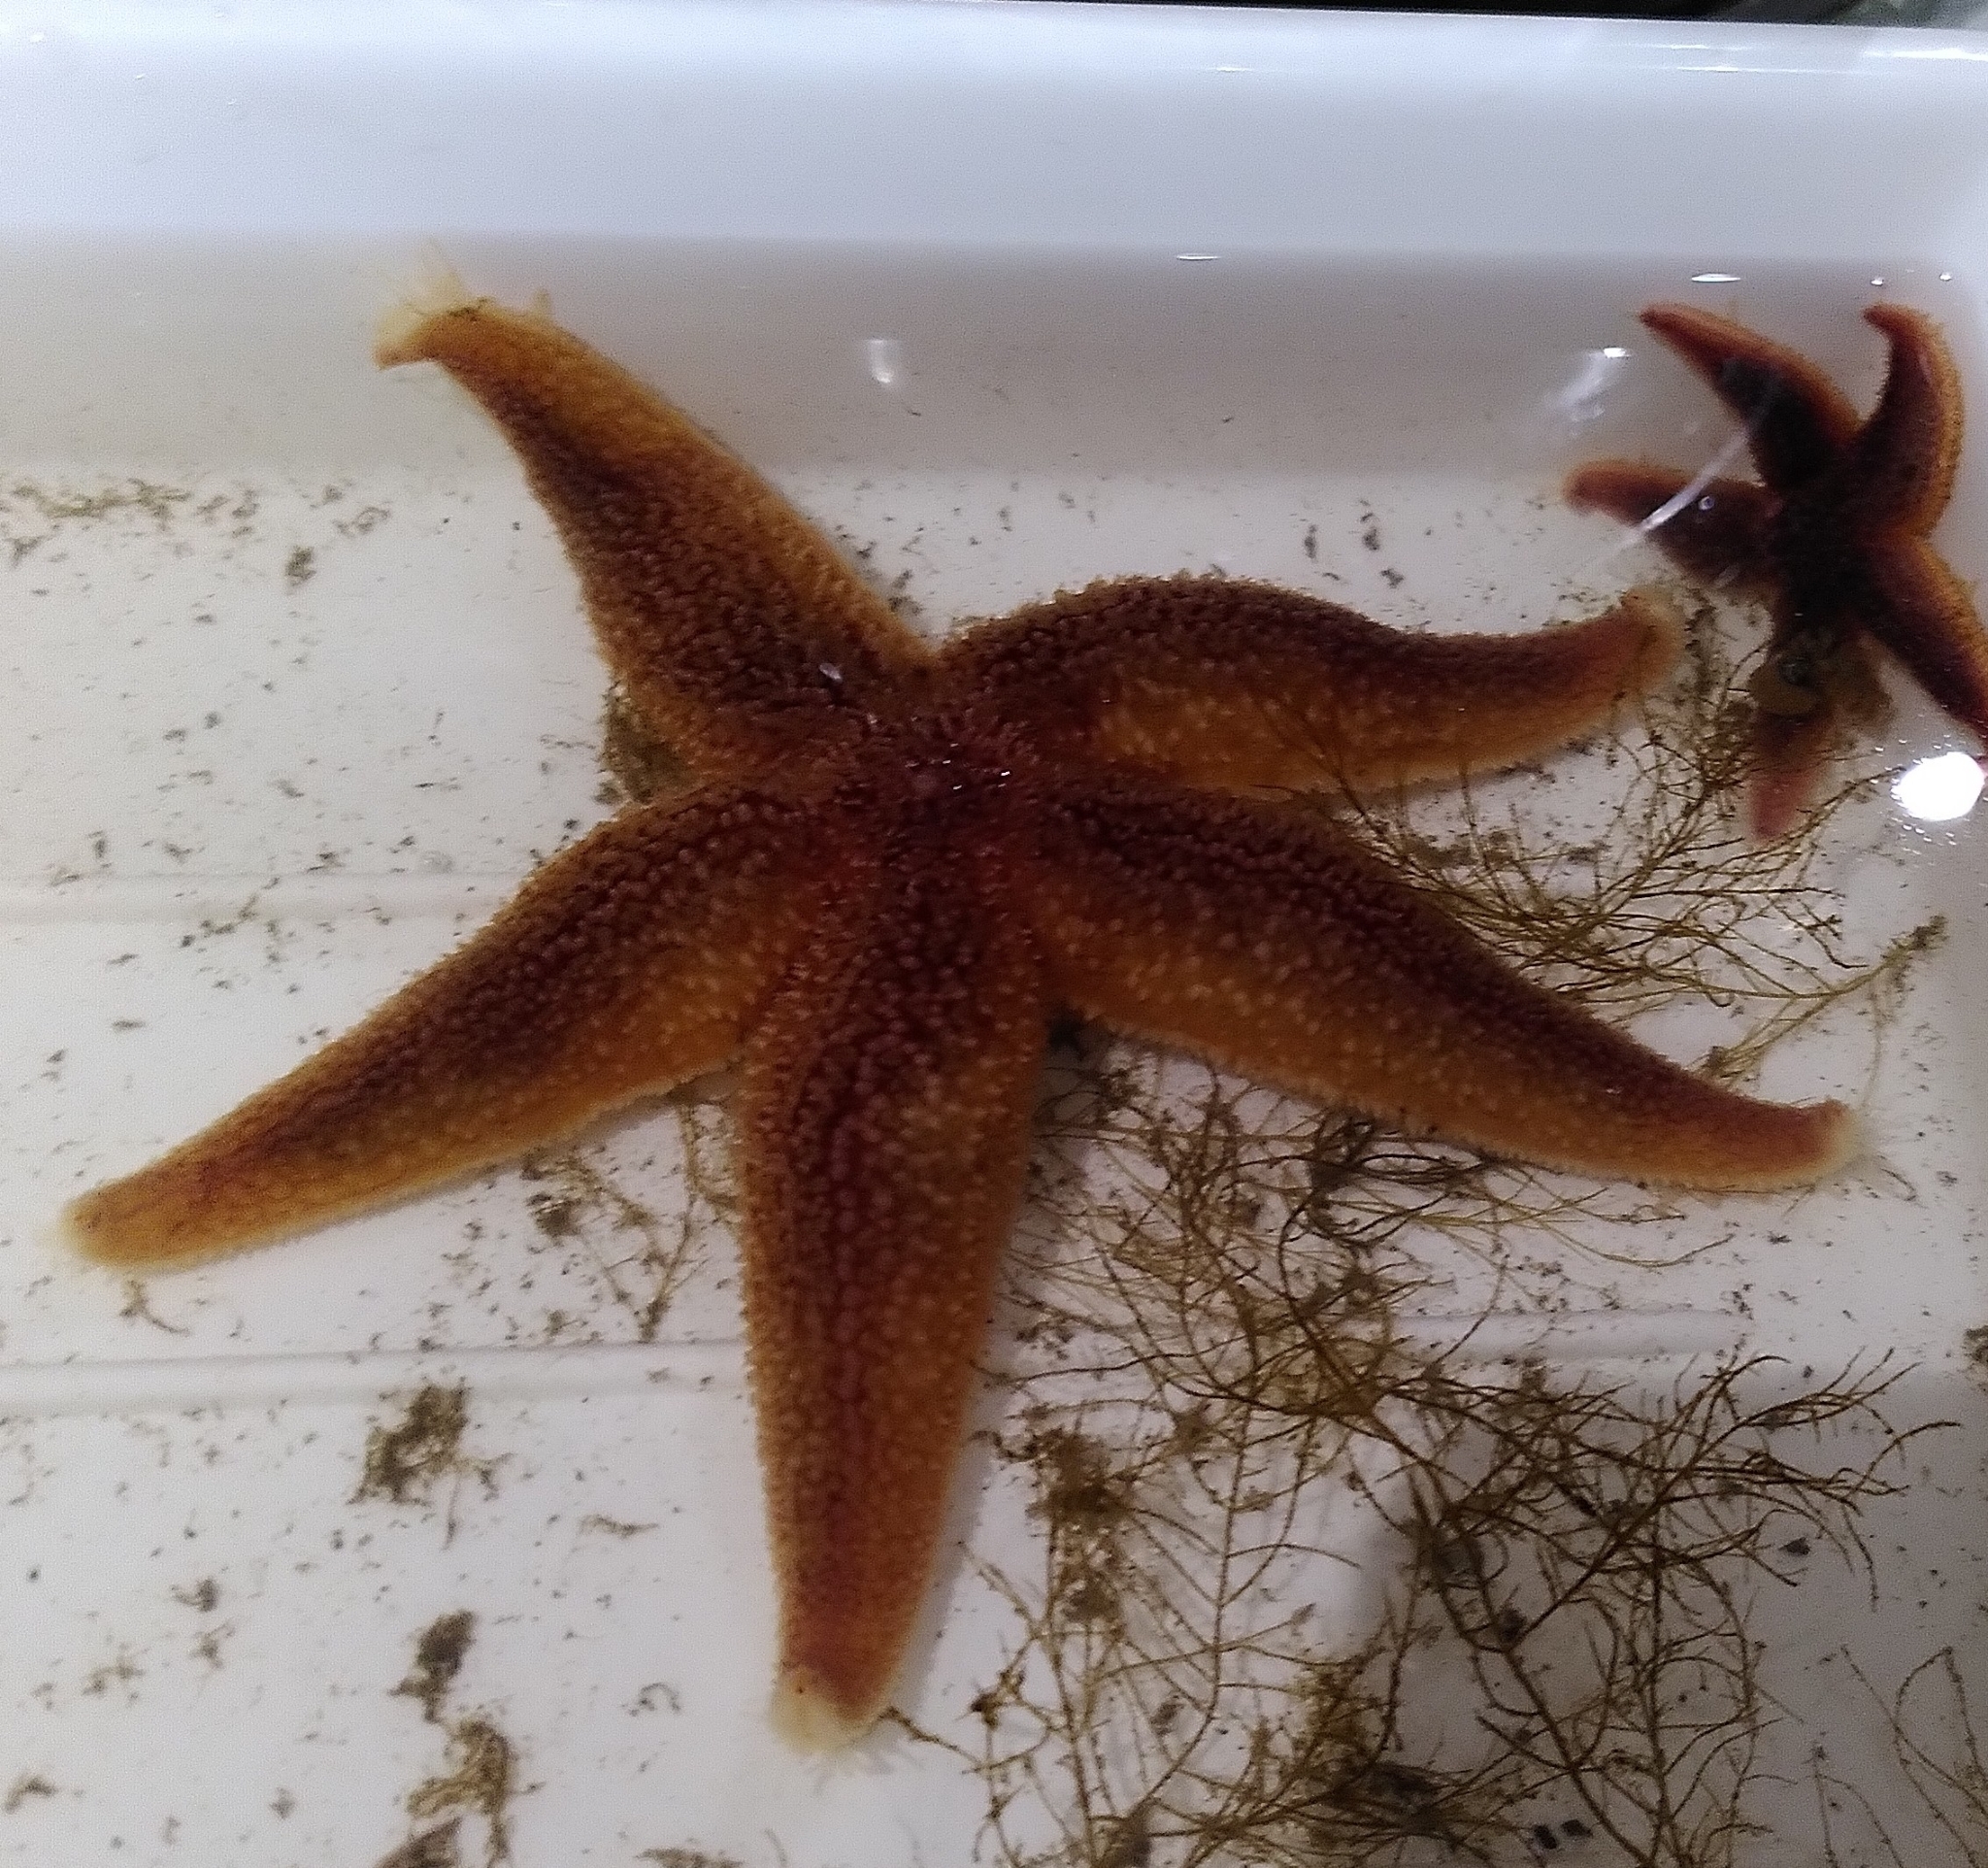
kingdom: Animalia
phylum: Echinodermata
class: Asteroidea
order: Forcipulatida
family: Asteriidae
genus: Asterias
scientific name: Asterias rubens
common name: Common starfish
